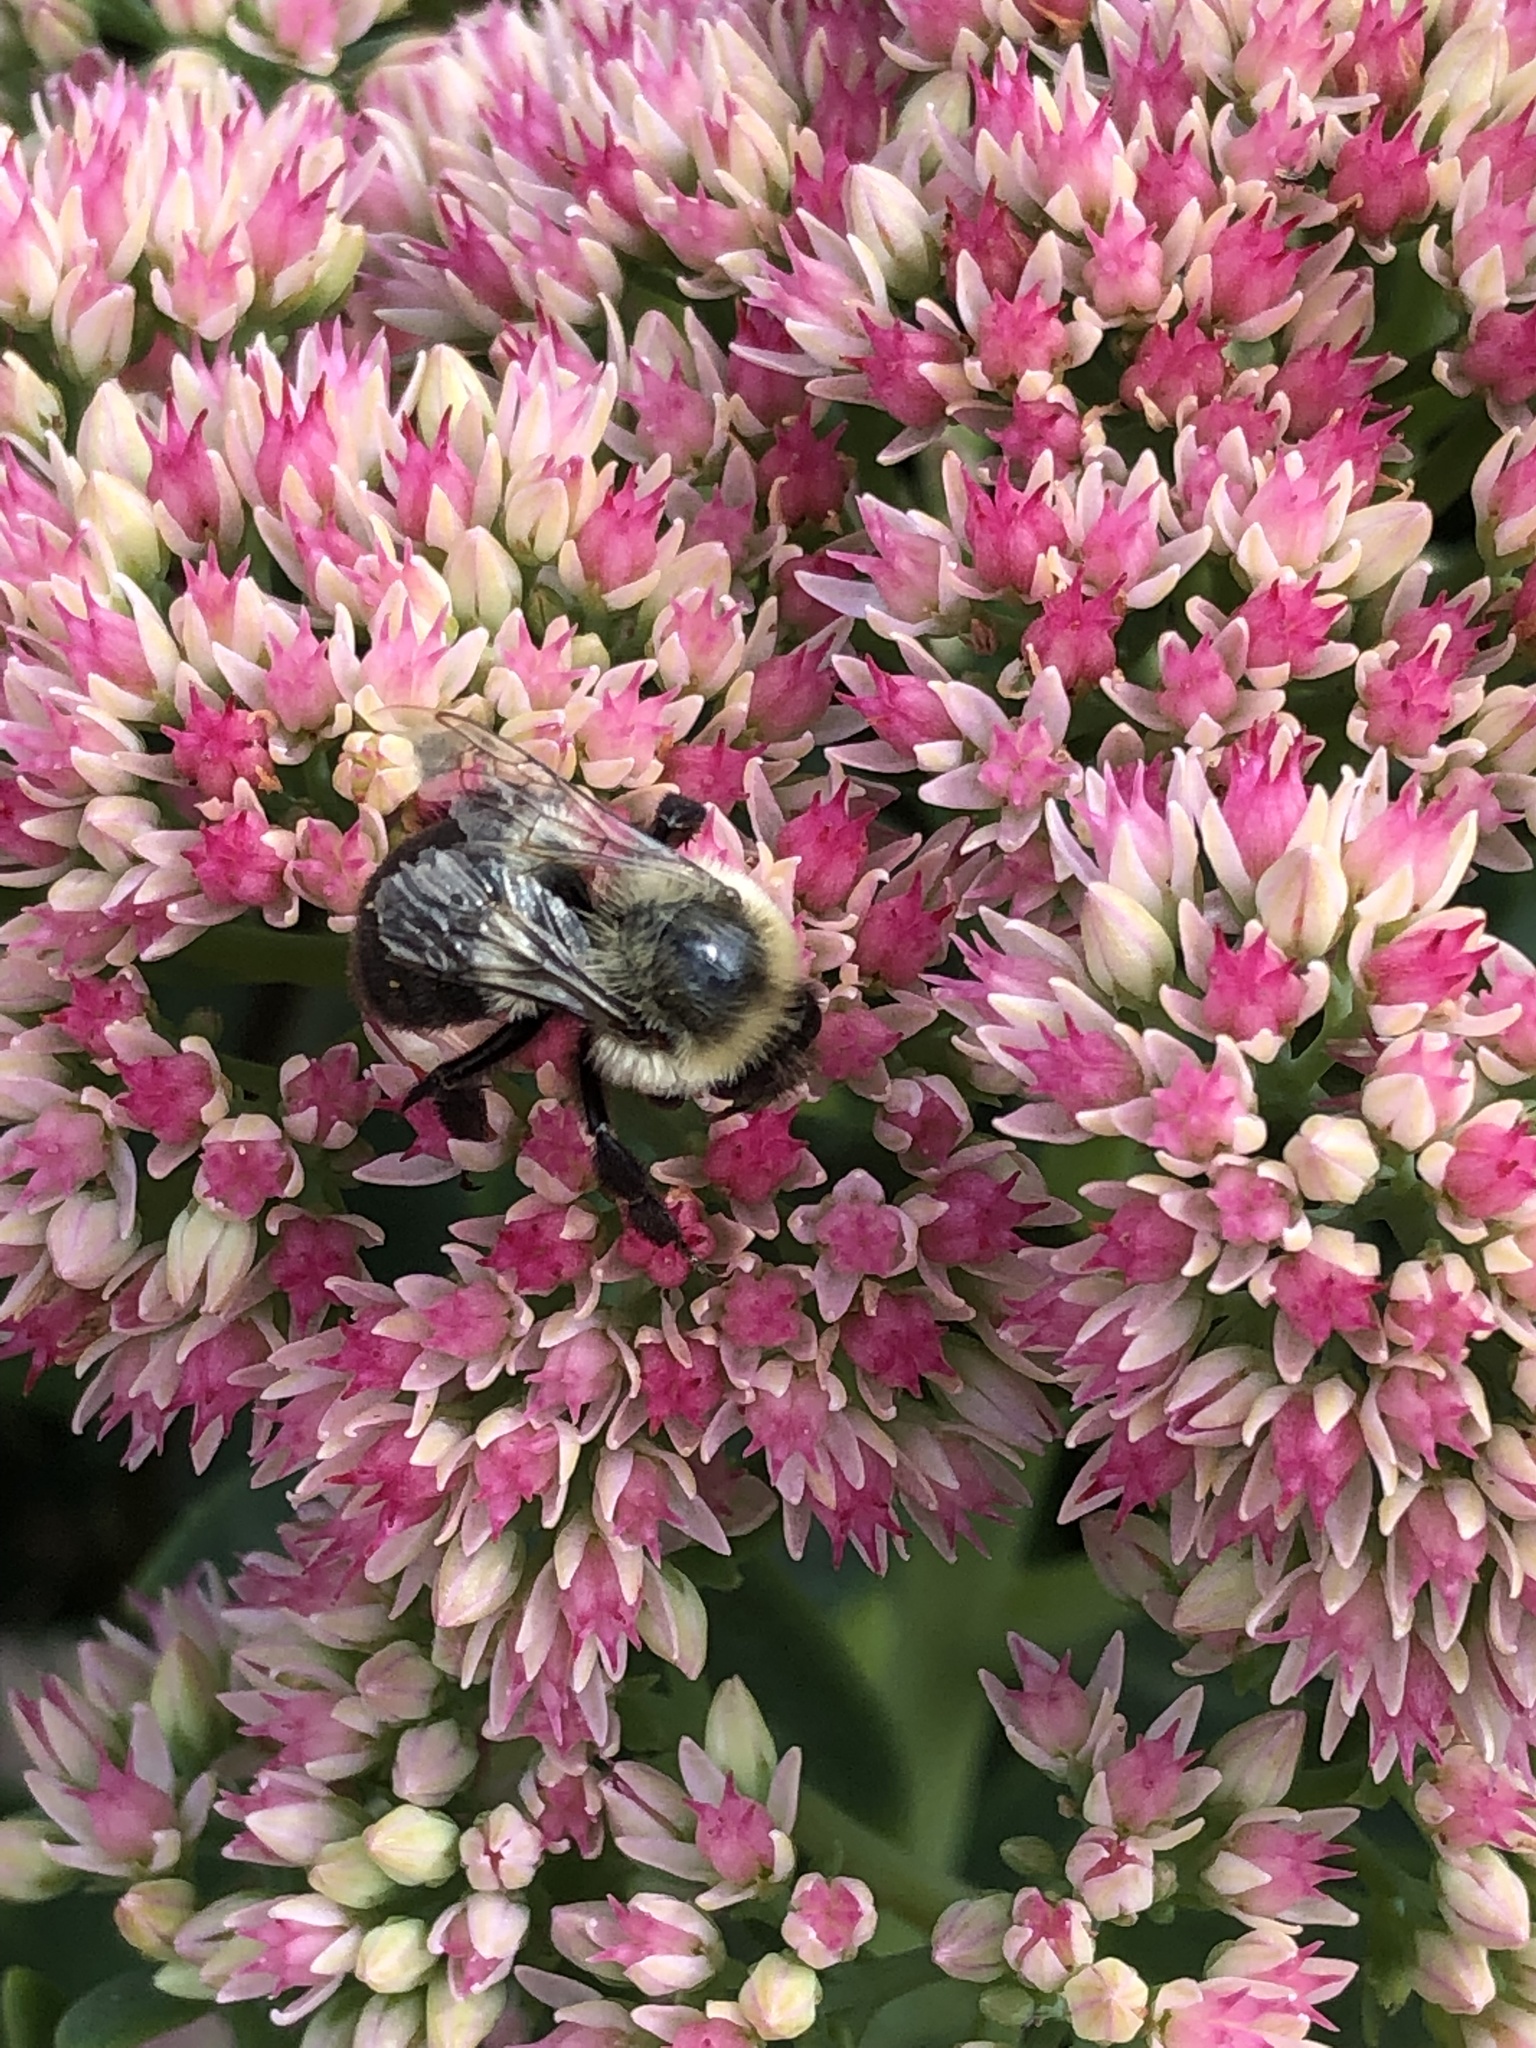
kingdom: Animalia
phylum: Arthropoda
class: Insecta
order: Hymenoptera
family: Apidae
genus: Bombus
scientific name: Bombus impatiens
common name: Common eastern bumble bee
